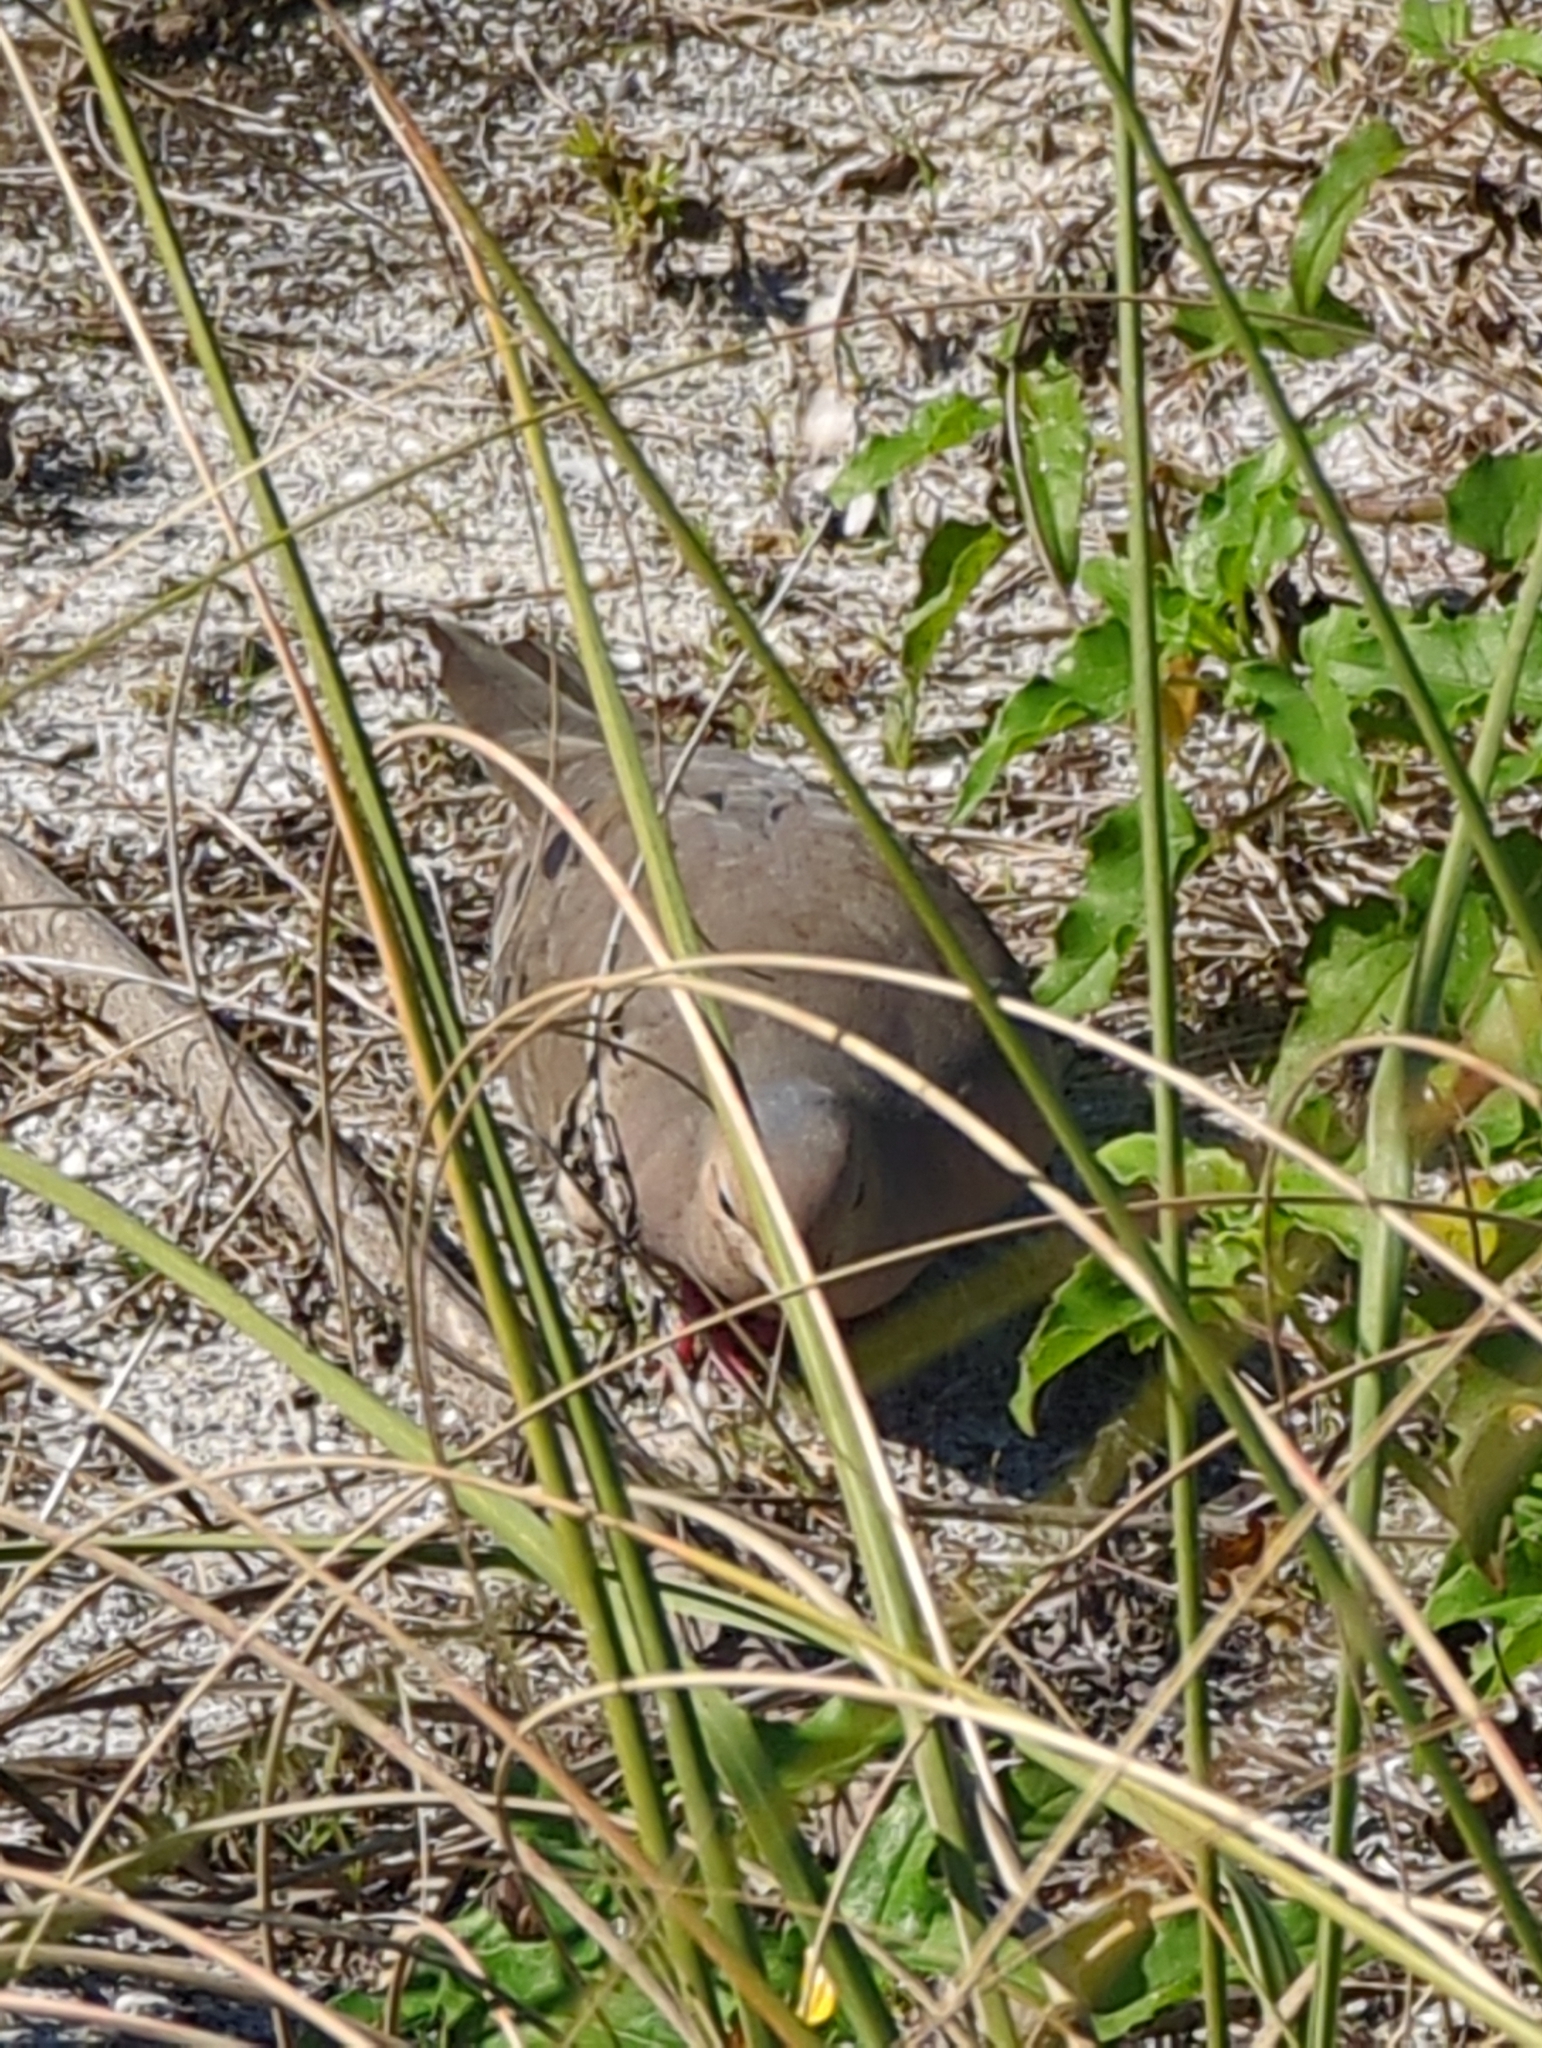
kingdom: Animalia
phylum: Chordata
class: Aves
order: Columbiformes
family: Columbidae
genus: Zenaida
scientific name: Zenaida macroura
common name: Mourning dove
